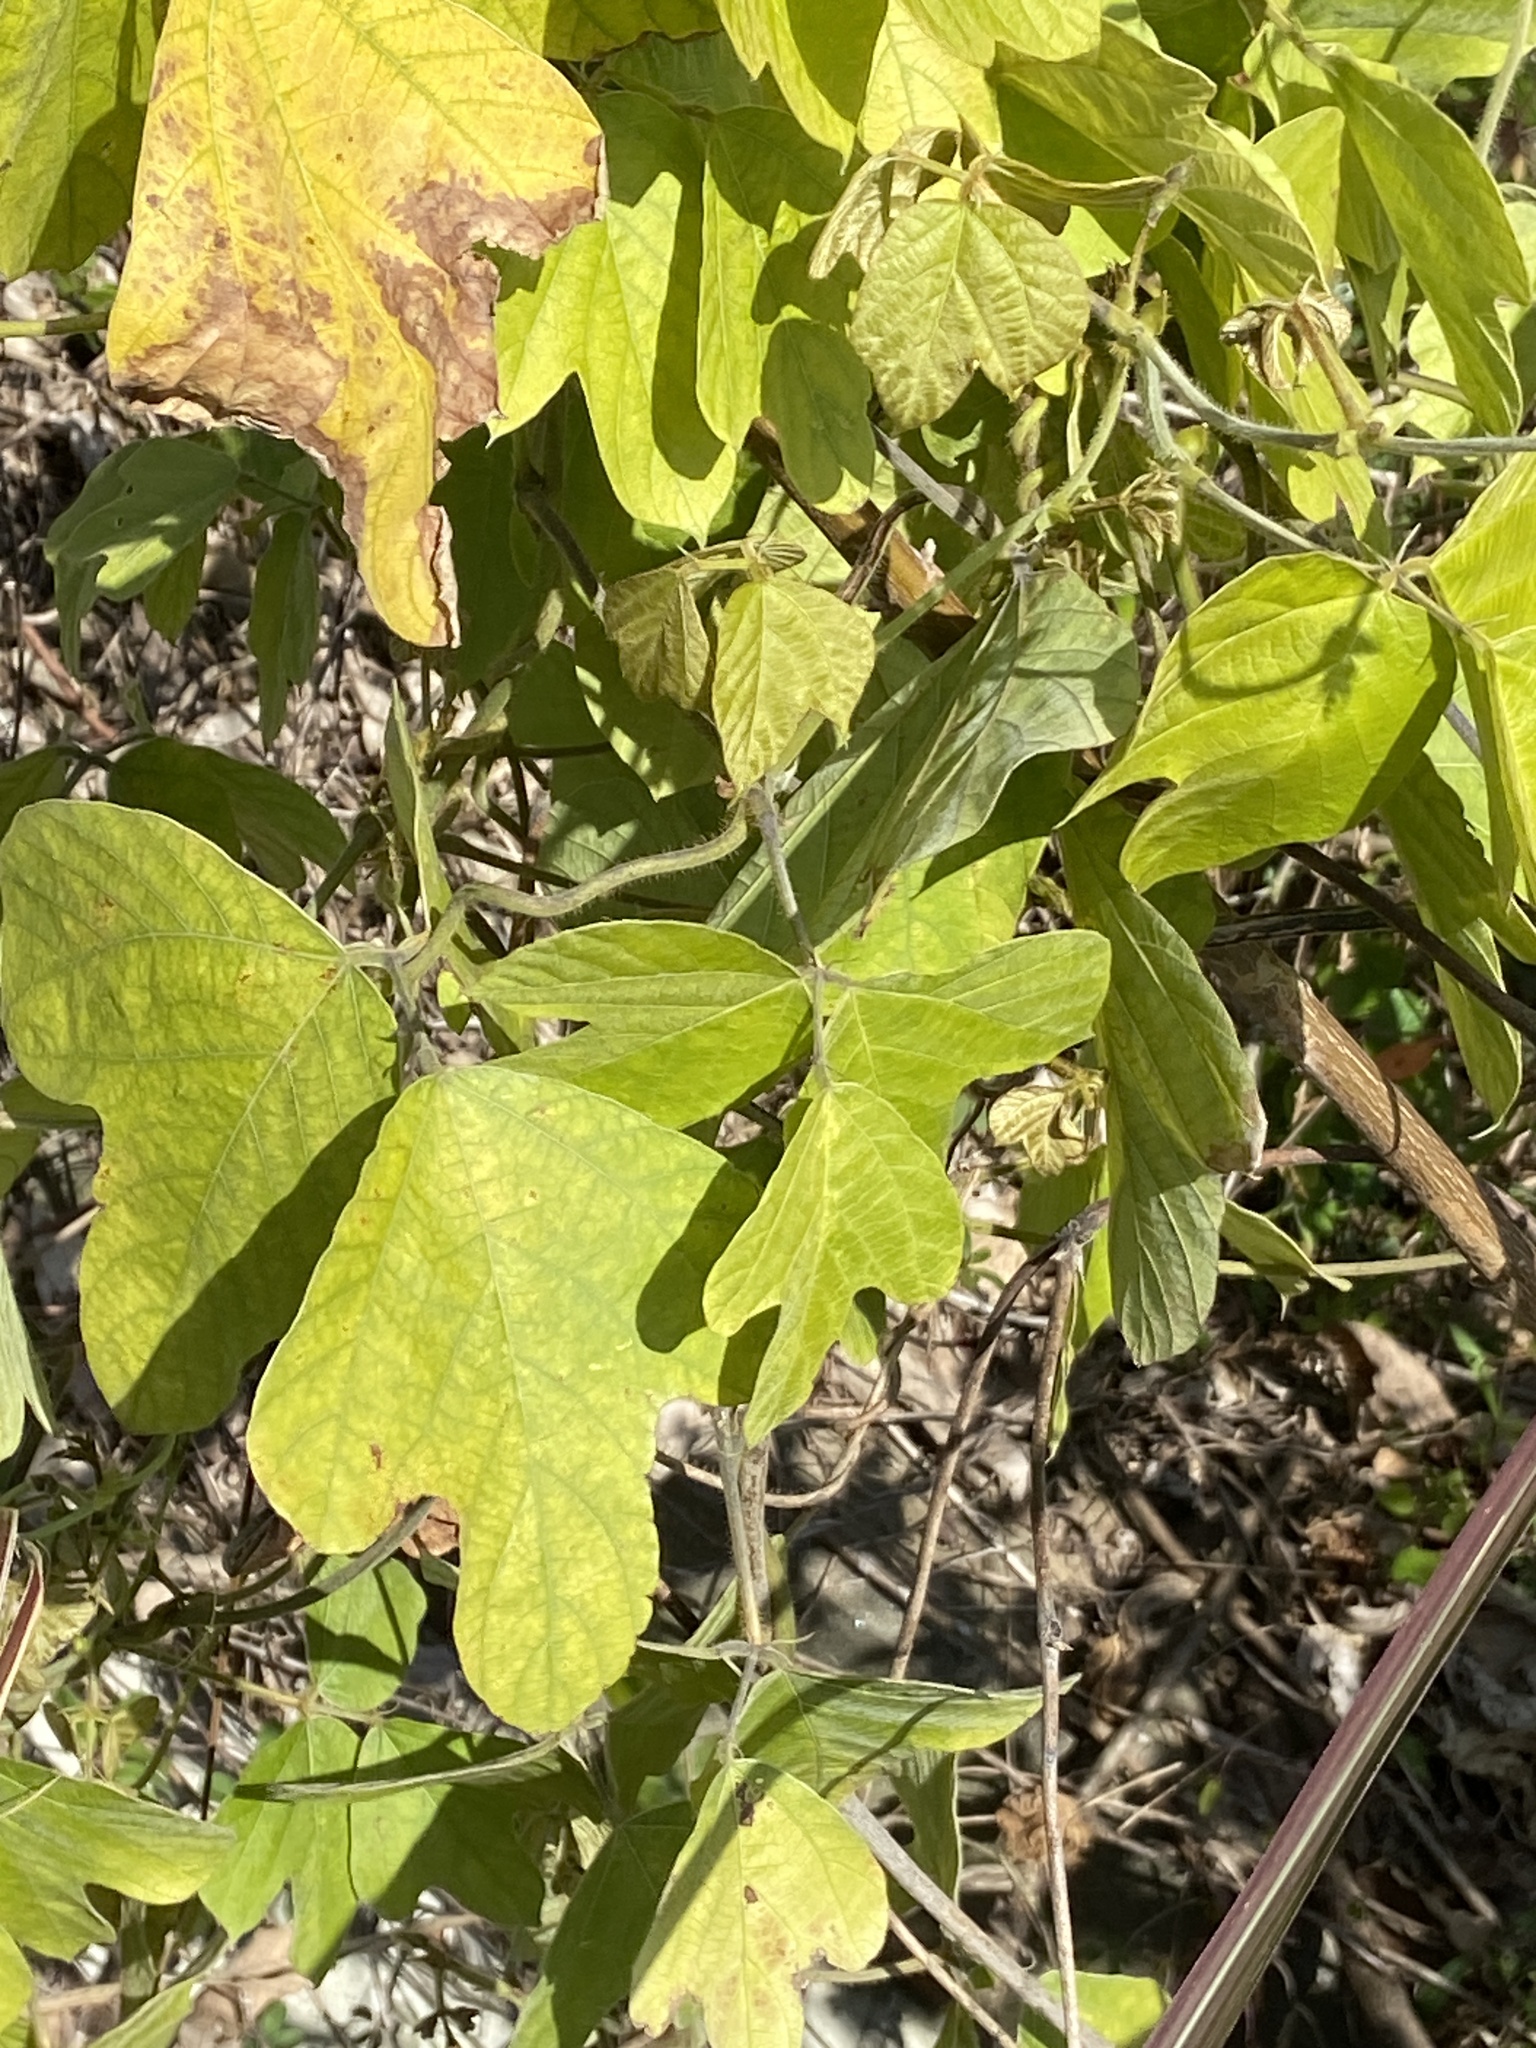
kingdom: Plantae
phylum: Tracheophyta
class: Magnoliopsida
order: Fabales
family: Fabaceae
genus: Pueraria
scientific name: Pueraria montana
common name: Kudzu
